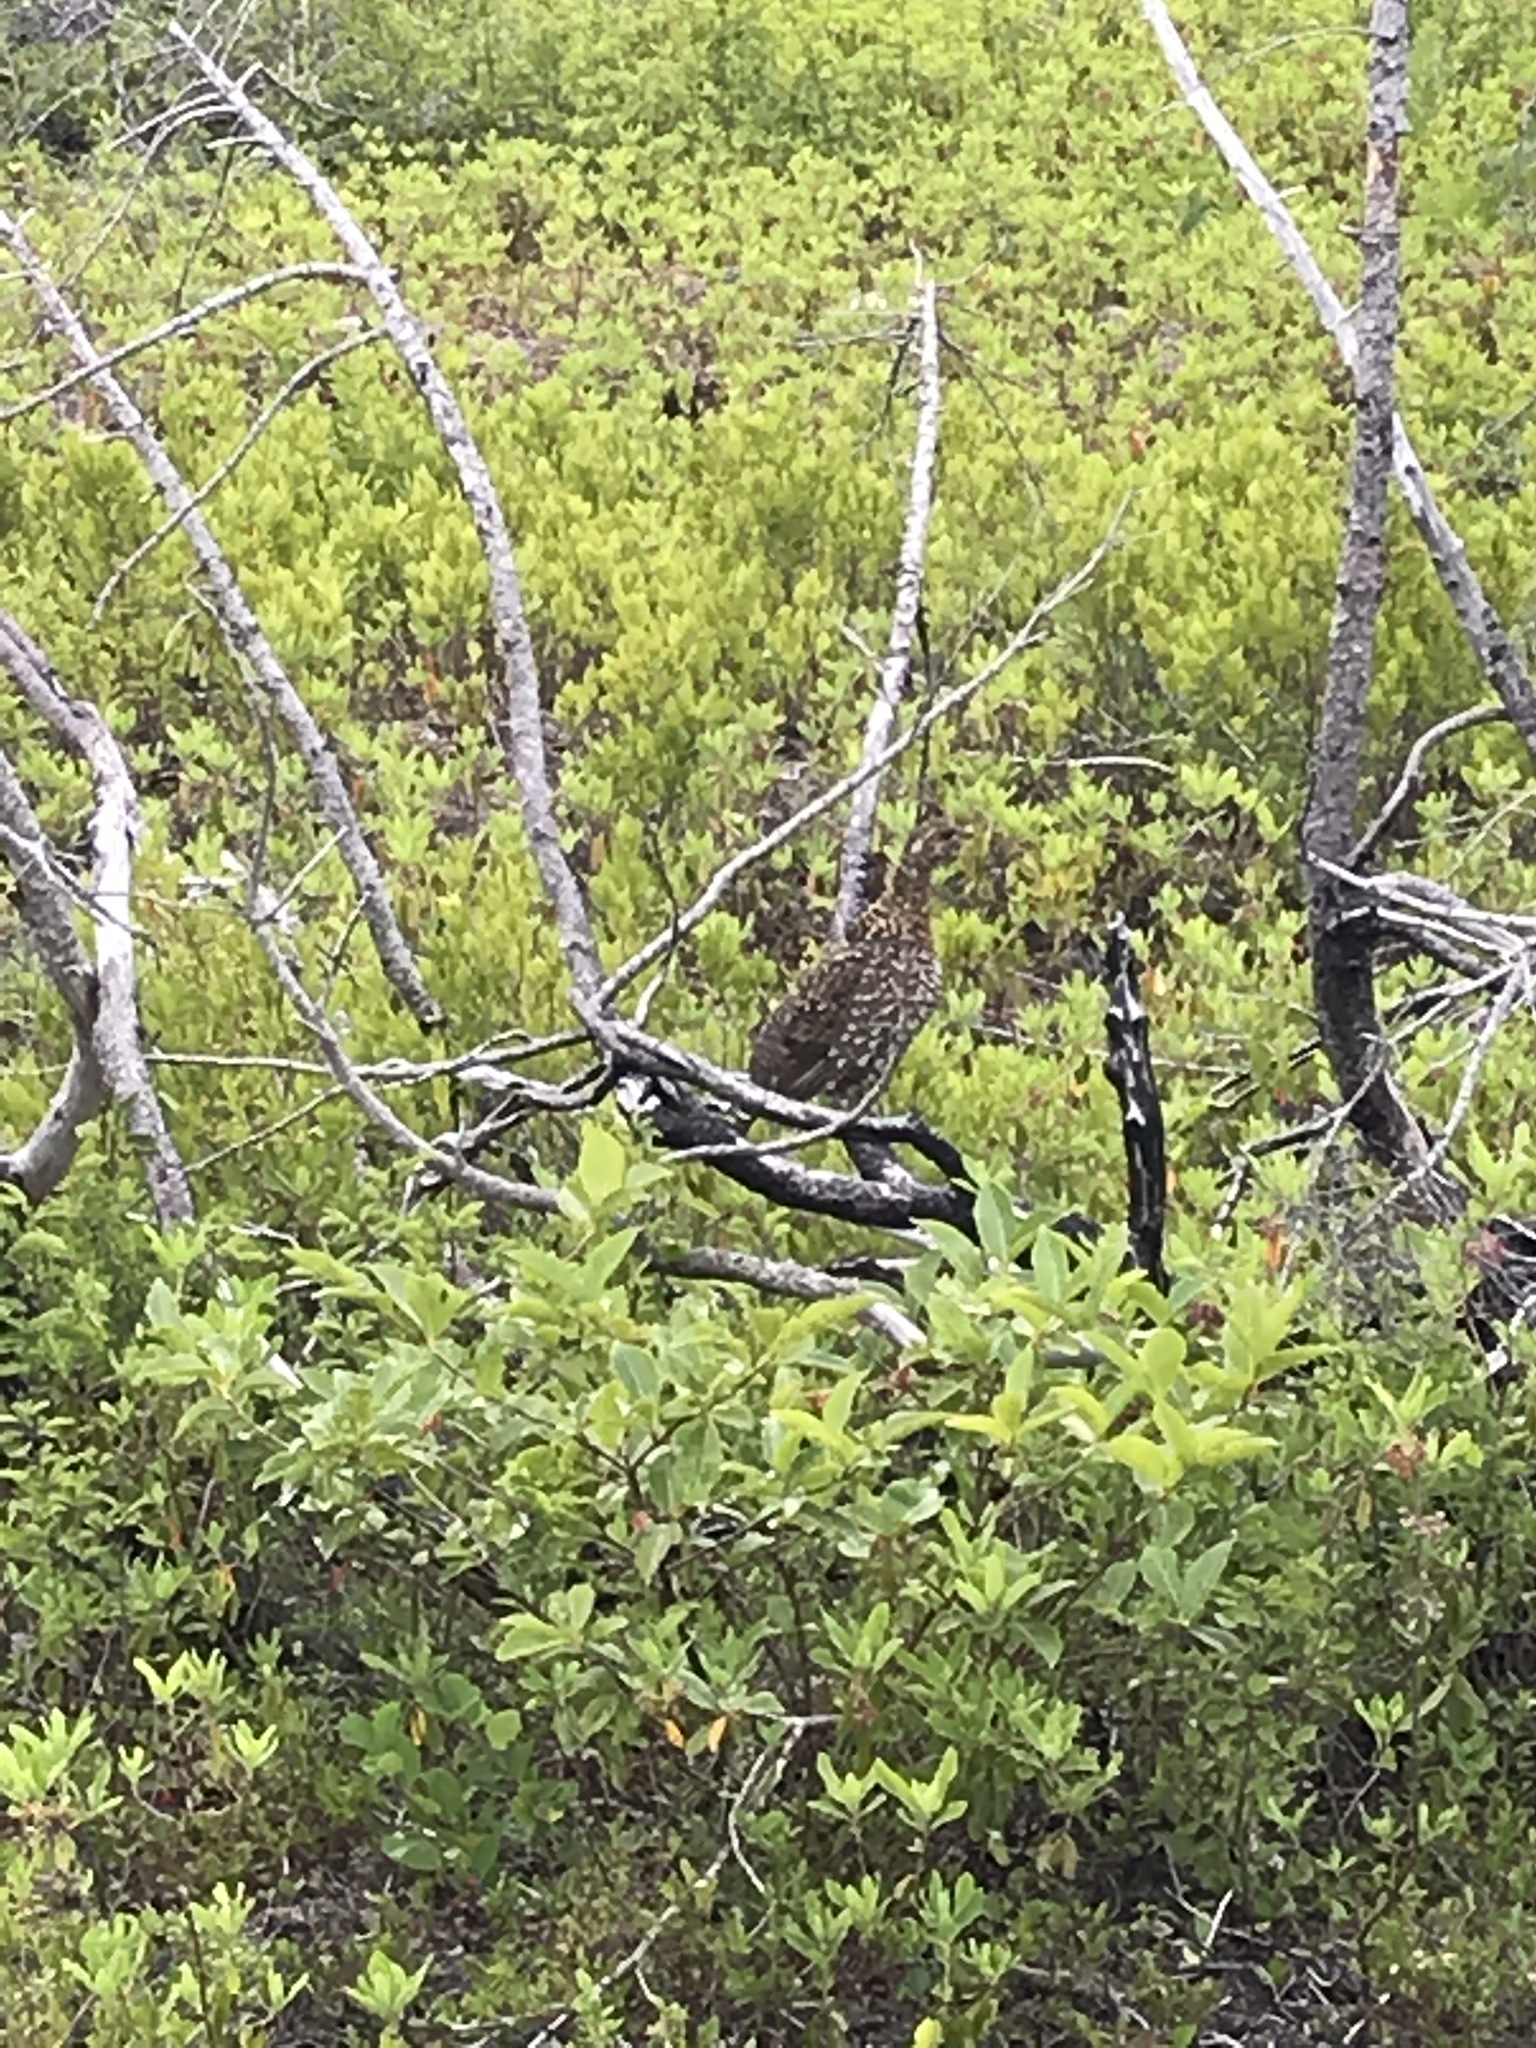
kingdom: Animalia
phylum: Chordata
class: Aves
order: Galliformes
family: Phasianidae
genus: Canachites
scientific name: Canachites canadensis
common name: Spruce grouse
